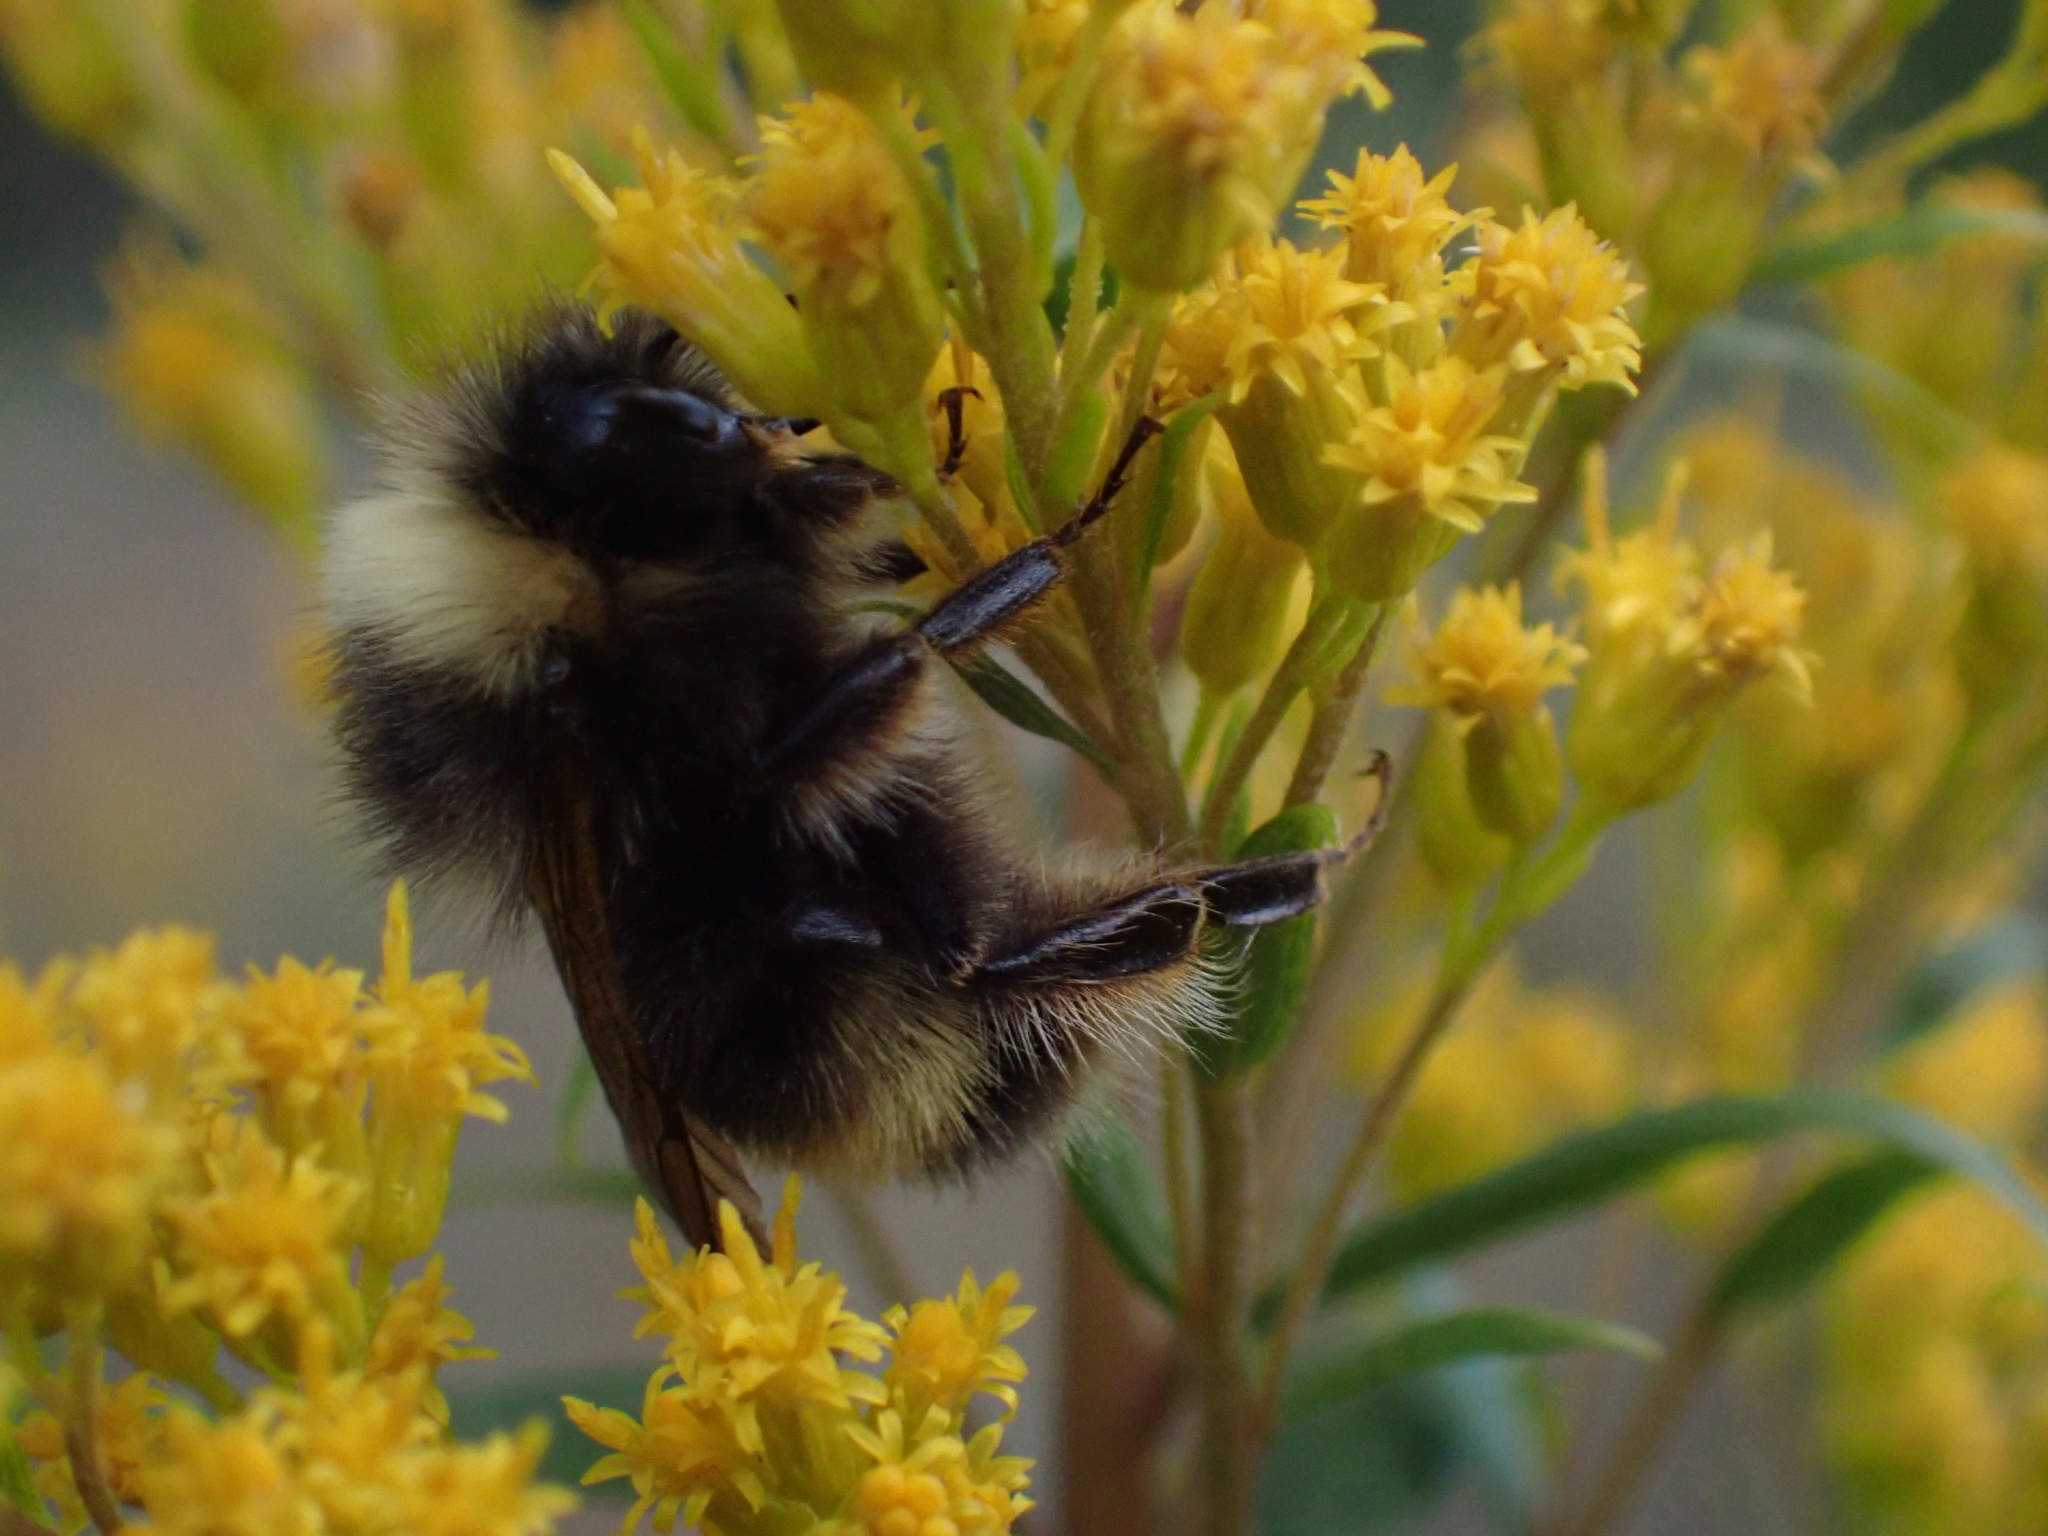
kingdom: Animalia
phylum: Arthropoda
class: Insecta
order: Hymenoptera
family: Apidae
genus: Bombus
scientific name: Bombus mckayi
